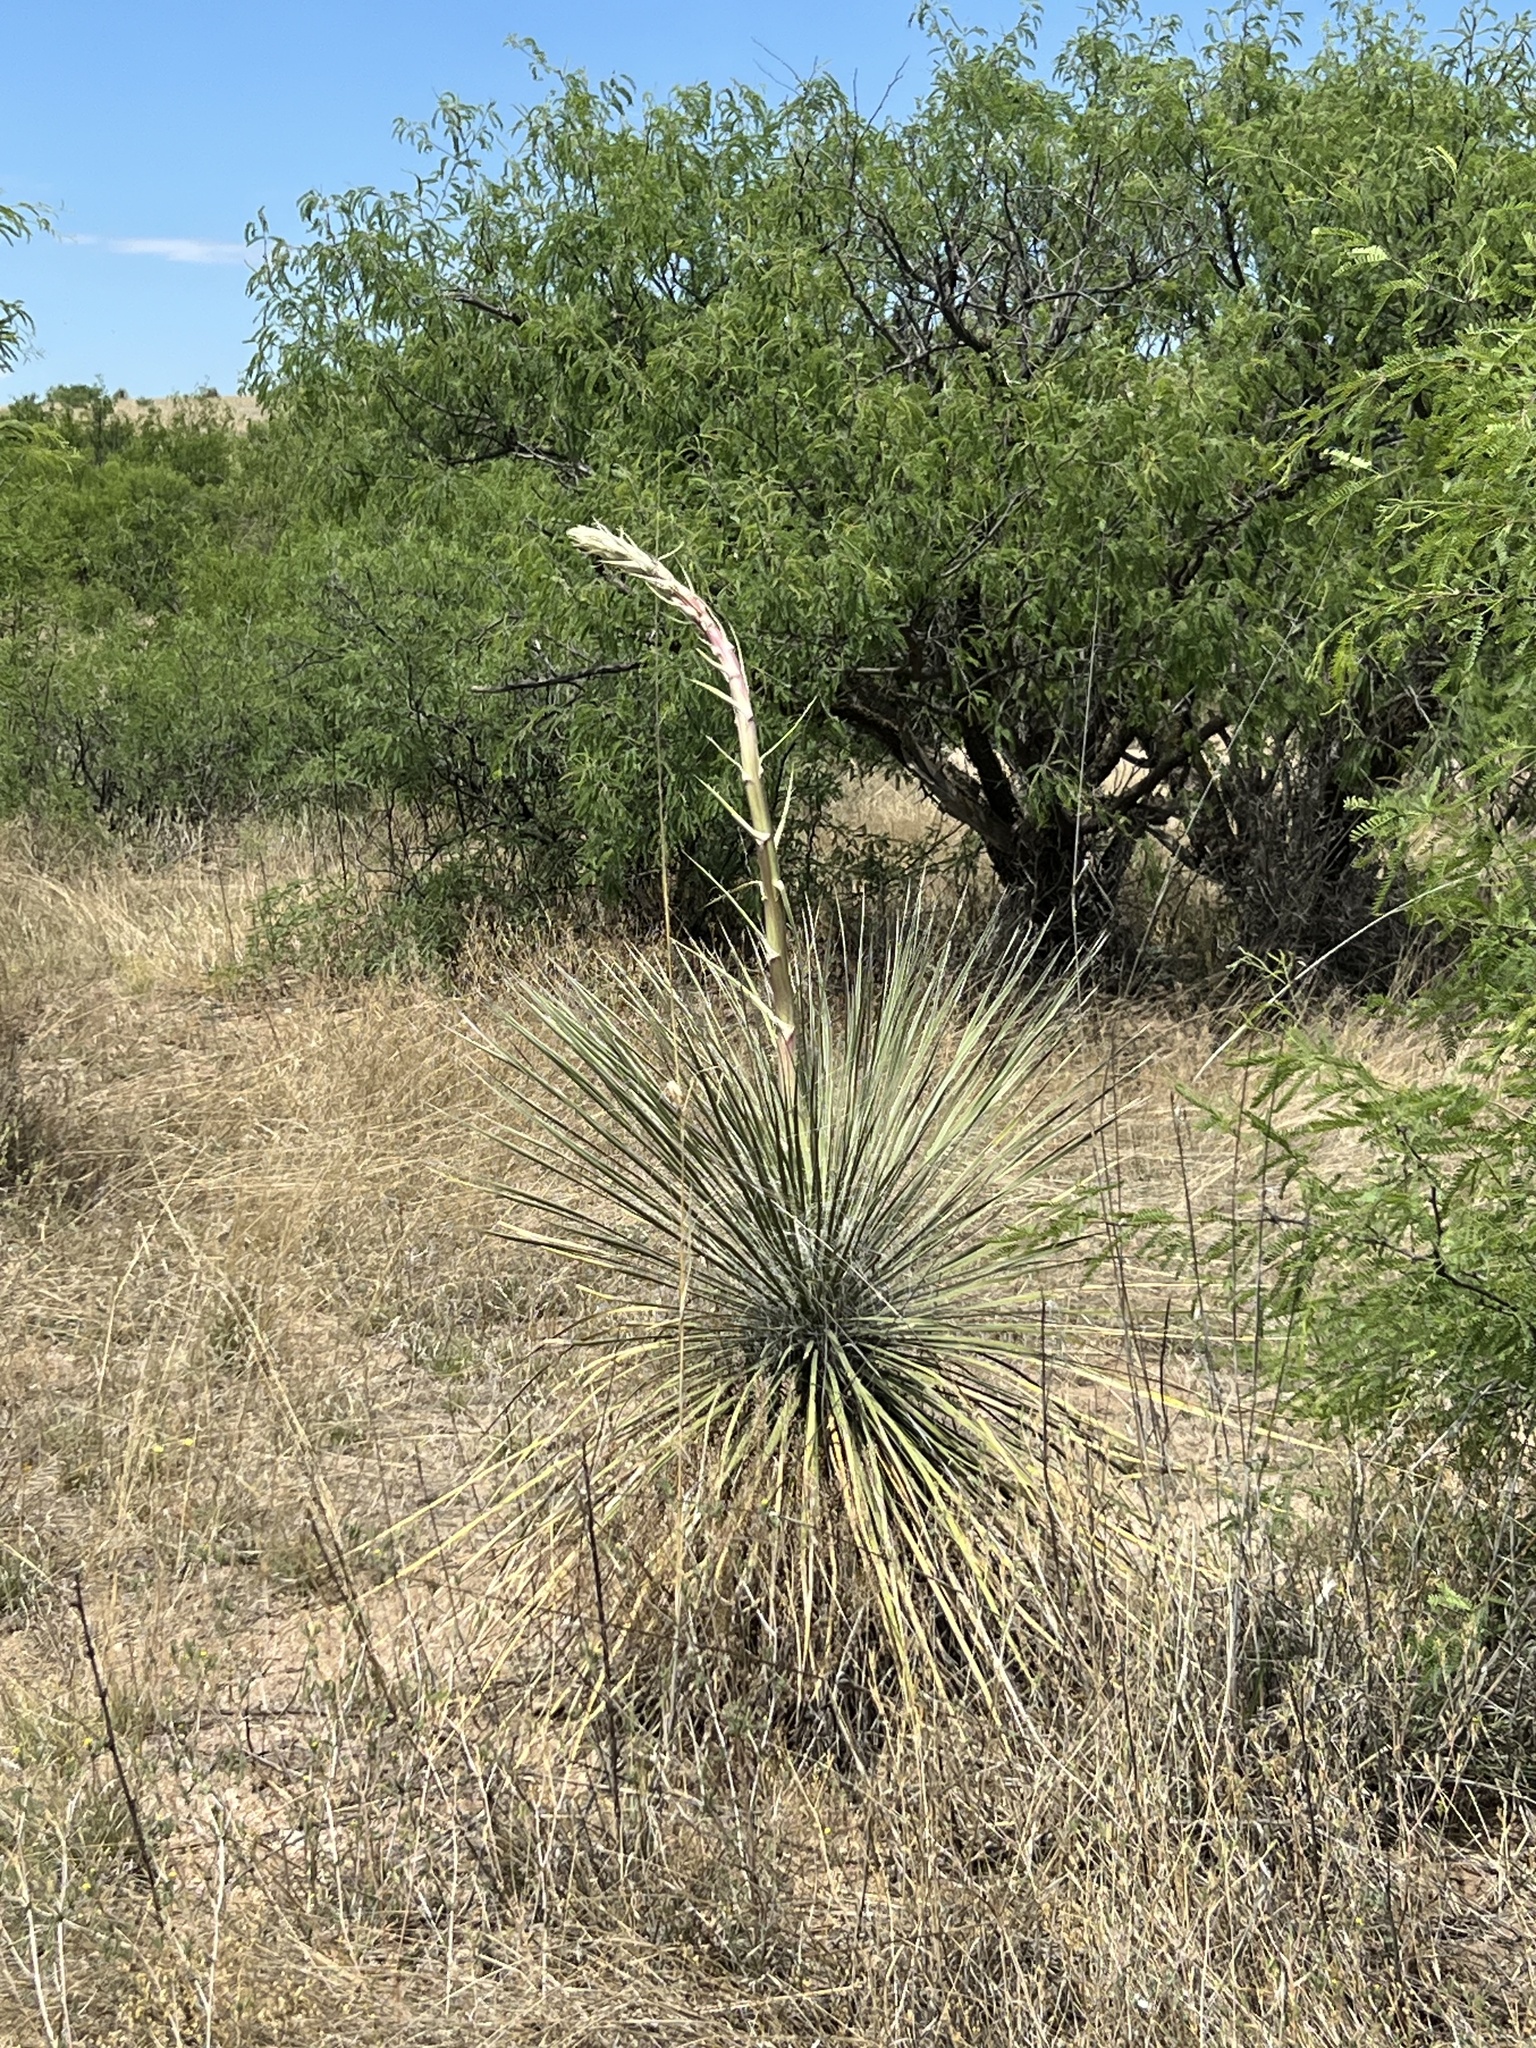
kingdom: Plantae
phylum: Tracheophyta
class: Liliopsida
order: Asparagales
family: Asparagaceae
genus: Yucca
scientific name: Yucca elata
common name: Palmella
